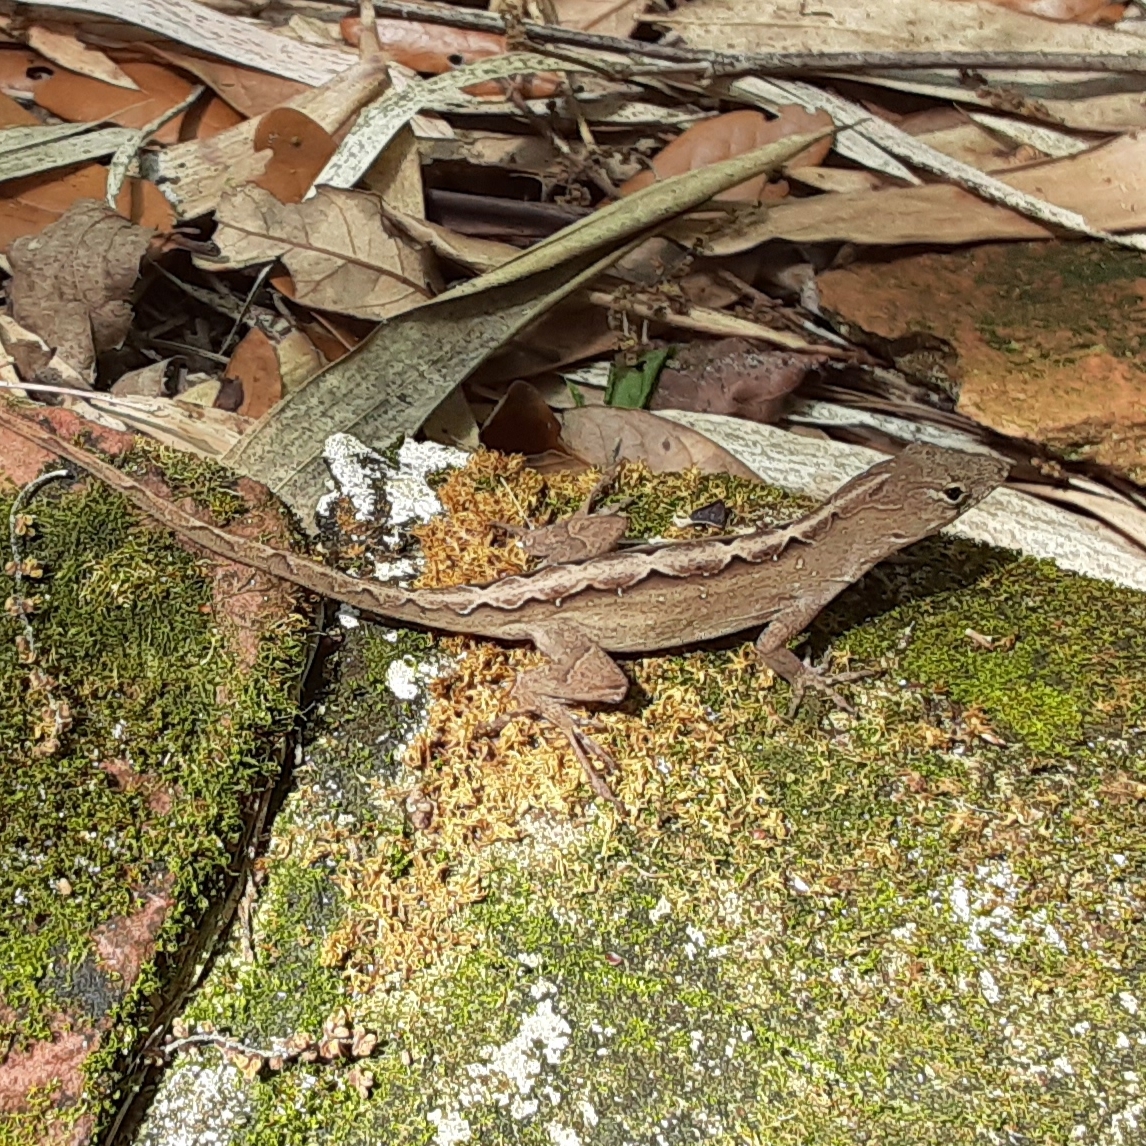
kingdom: Animalia
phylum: Chordata
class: Squamata
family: Dactyloidae
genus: Anolis
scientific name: Anolis sagrei
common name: Brown anole
